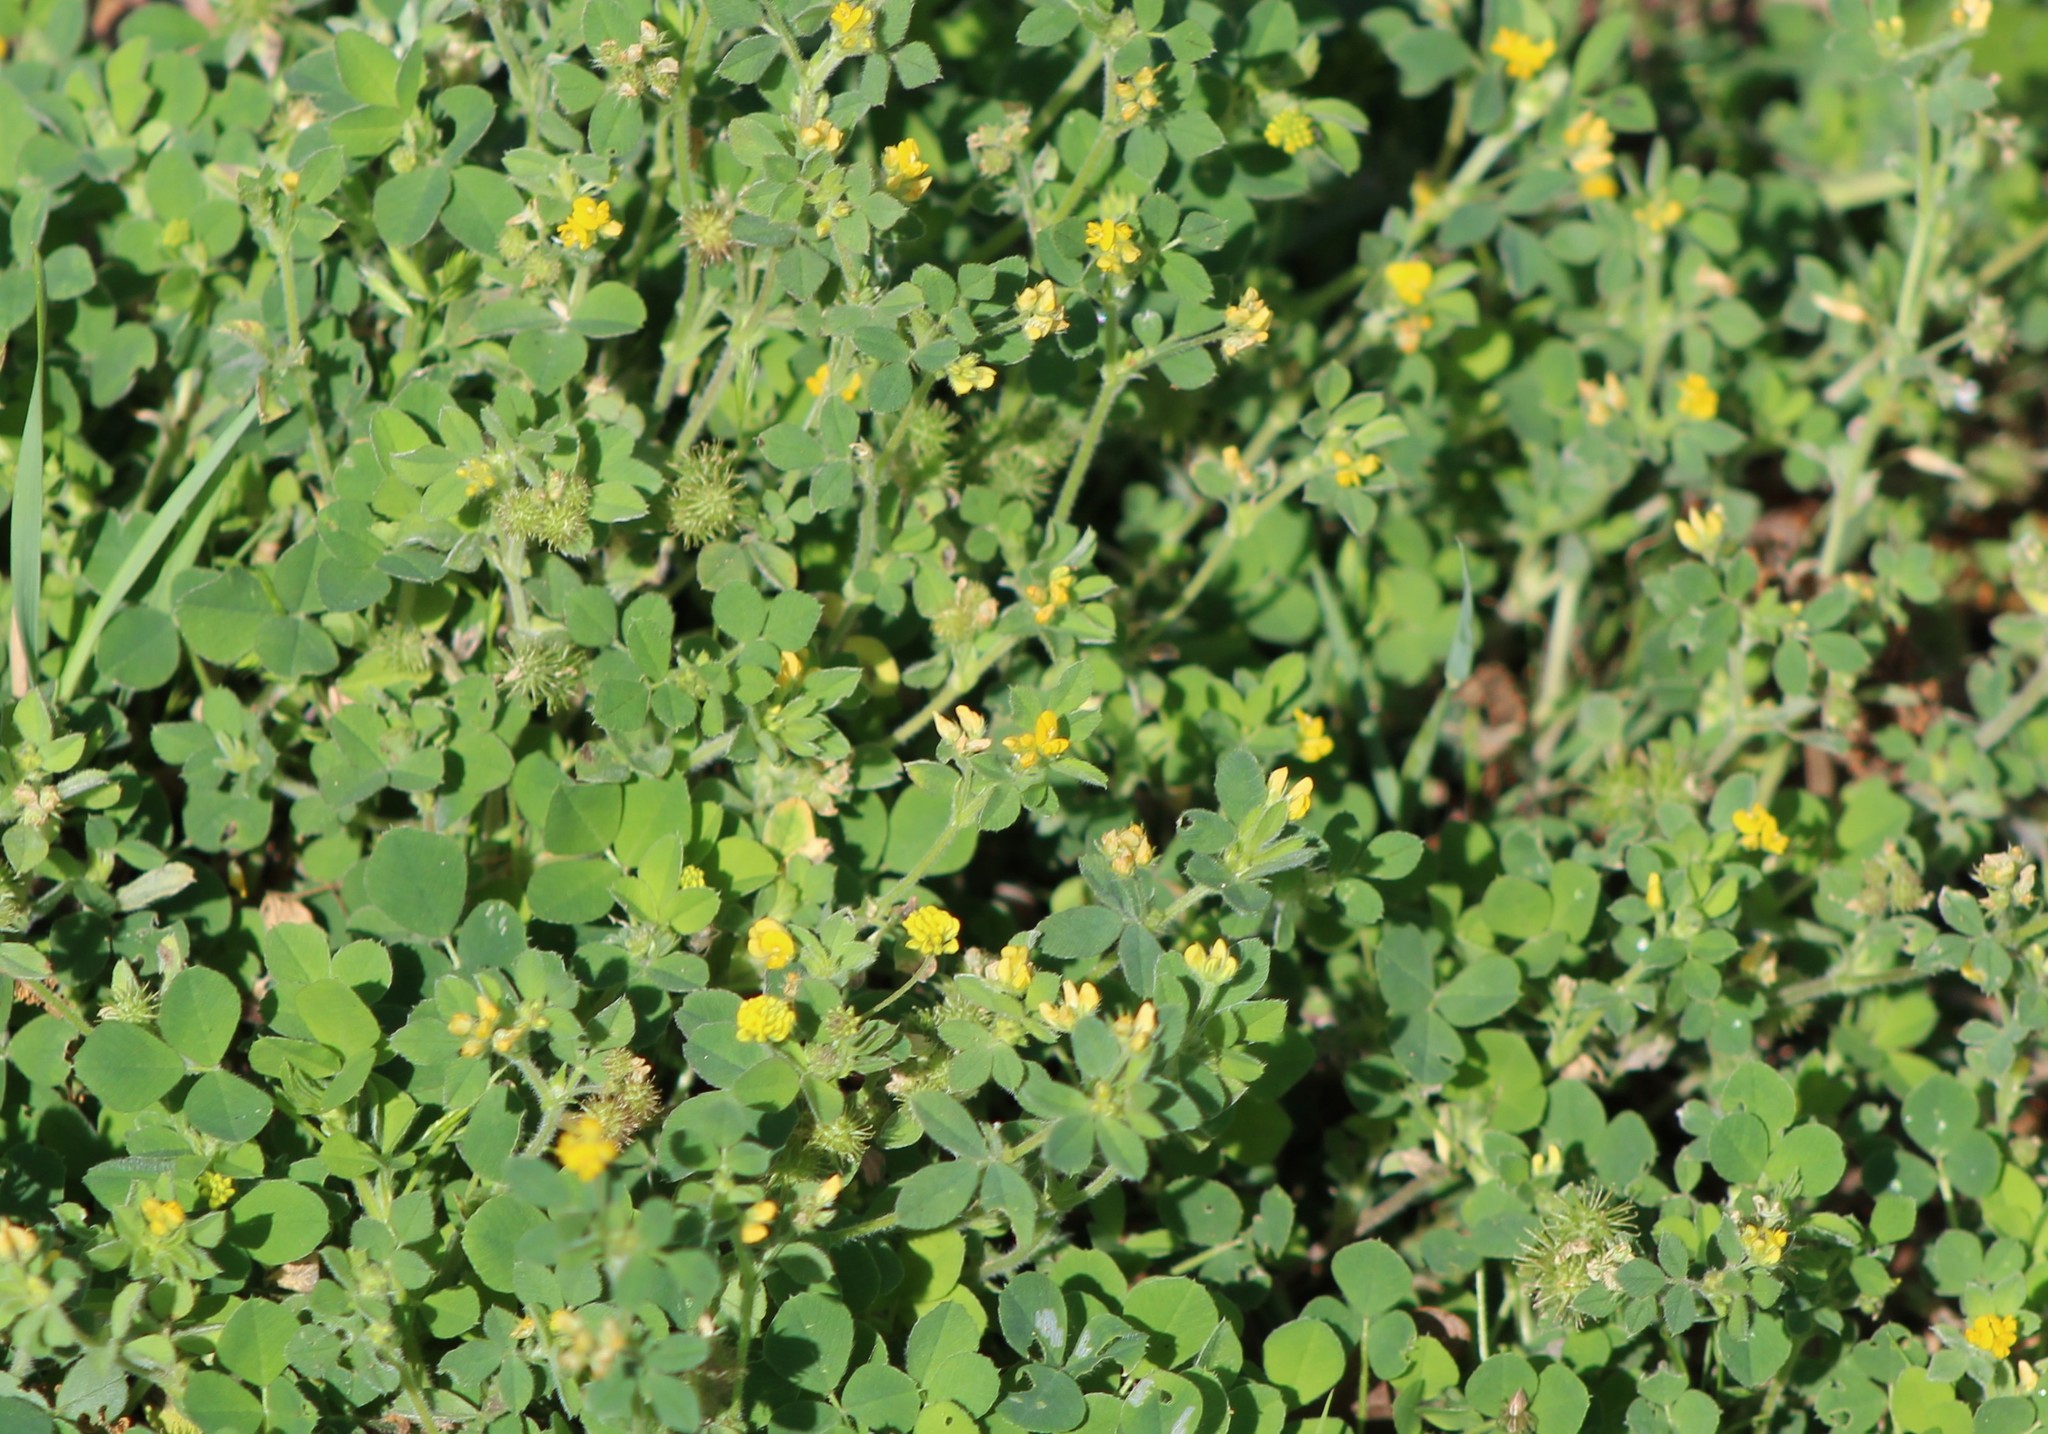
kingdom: Plantae
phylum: Tracheophyta
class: Magnoliopsida
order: Fabales
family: Fabaceae
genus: Medicago
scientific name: Medicago minima
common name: Little bur-clover
